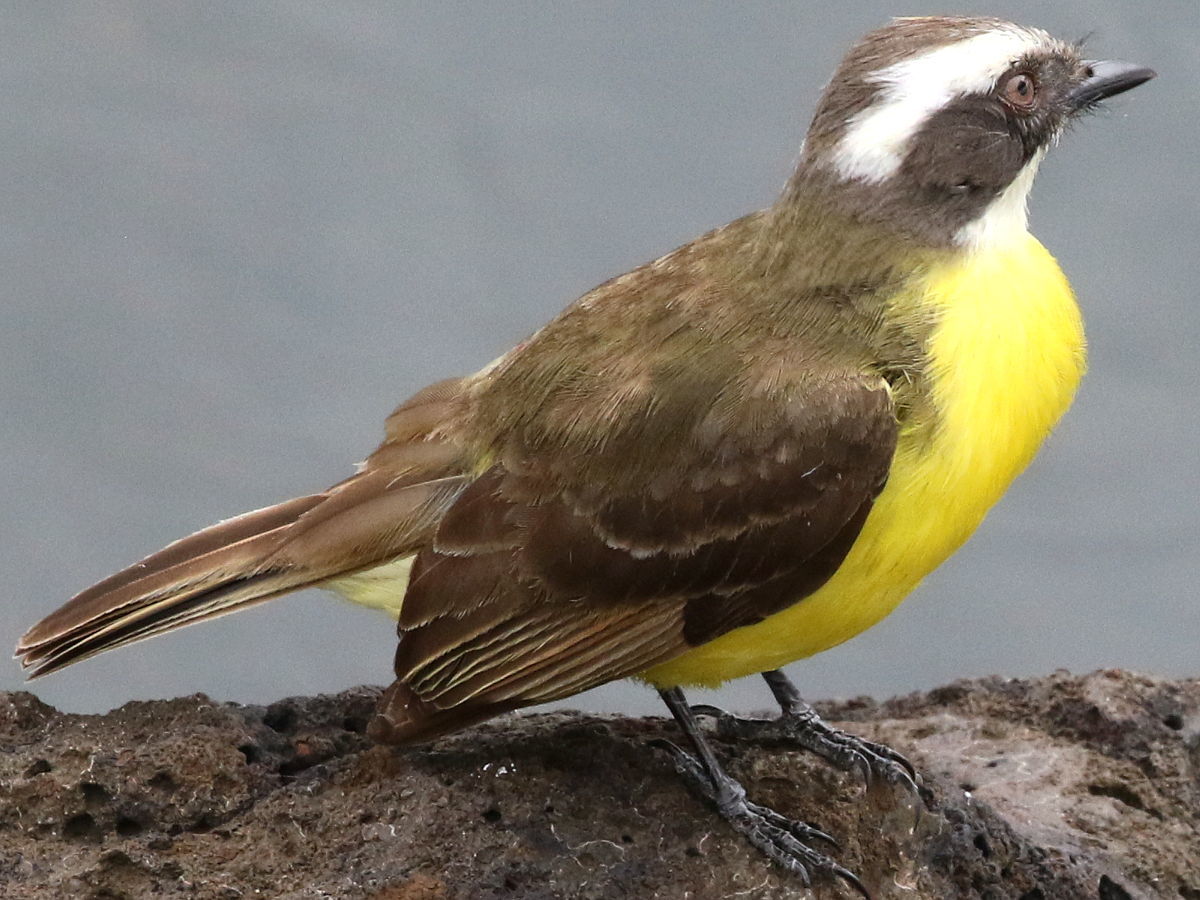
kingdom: Animalia
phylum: Chordata
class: Aves
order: Passeriformes
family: Tyrannidae
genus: Myiozetetes
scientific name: Myiozetetes similis
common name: Social flycatcher
